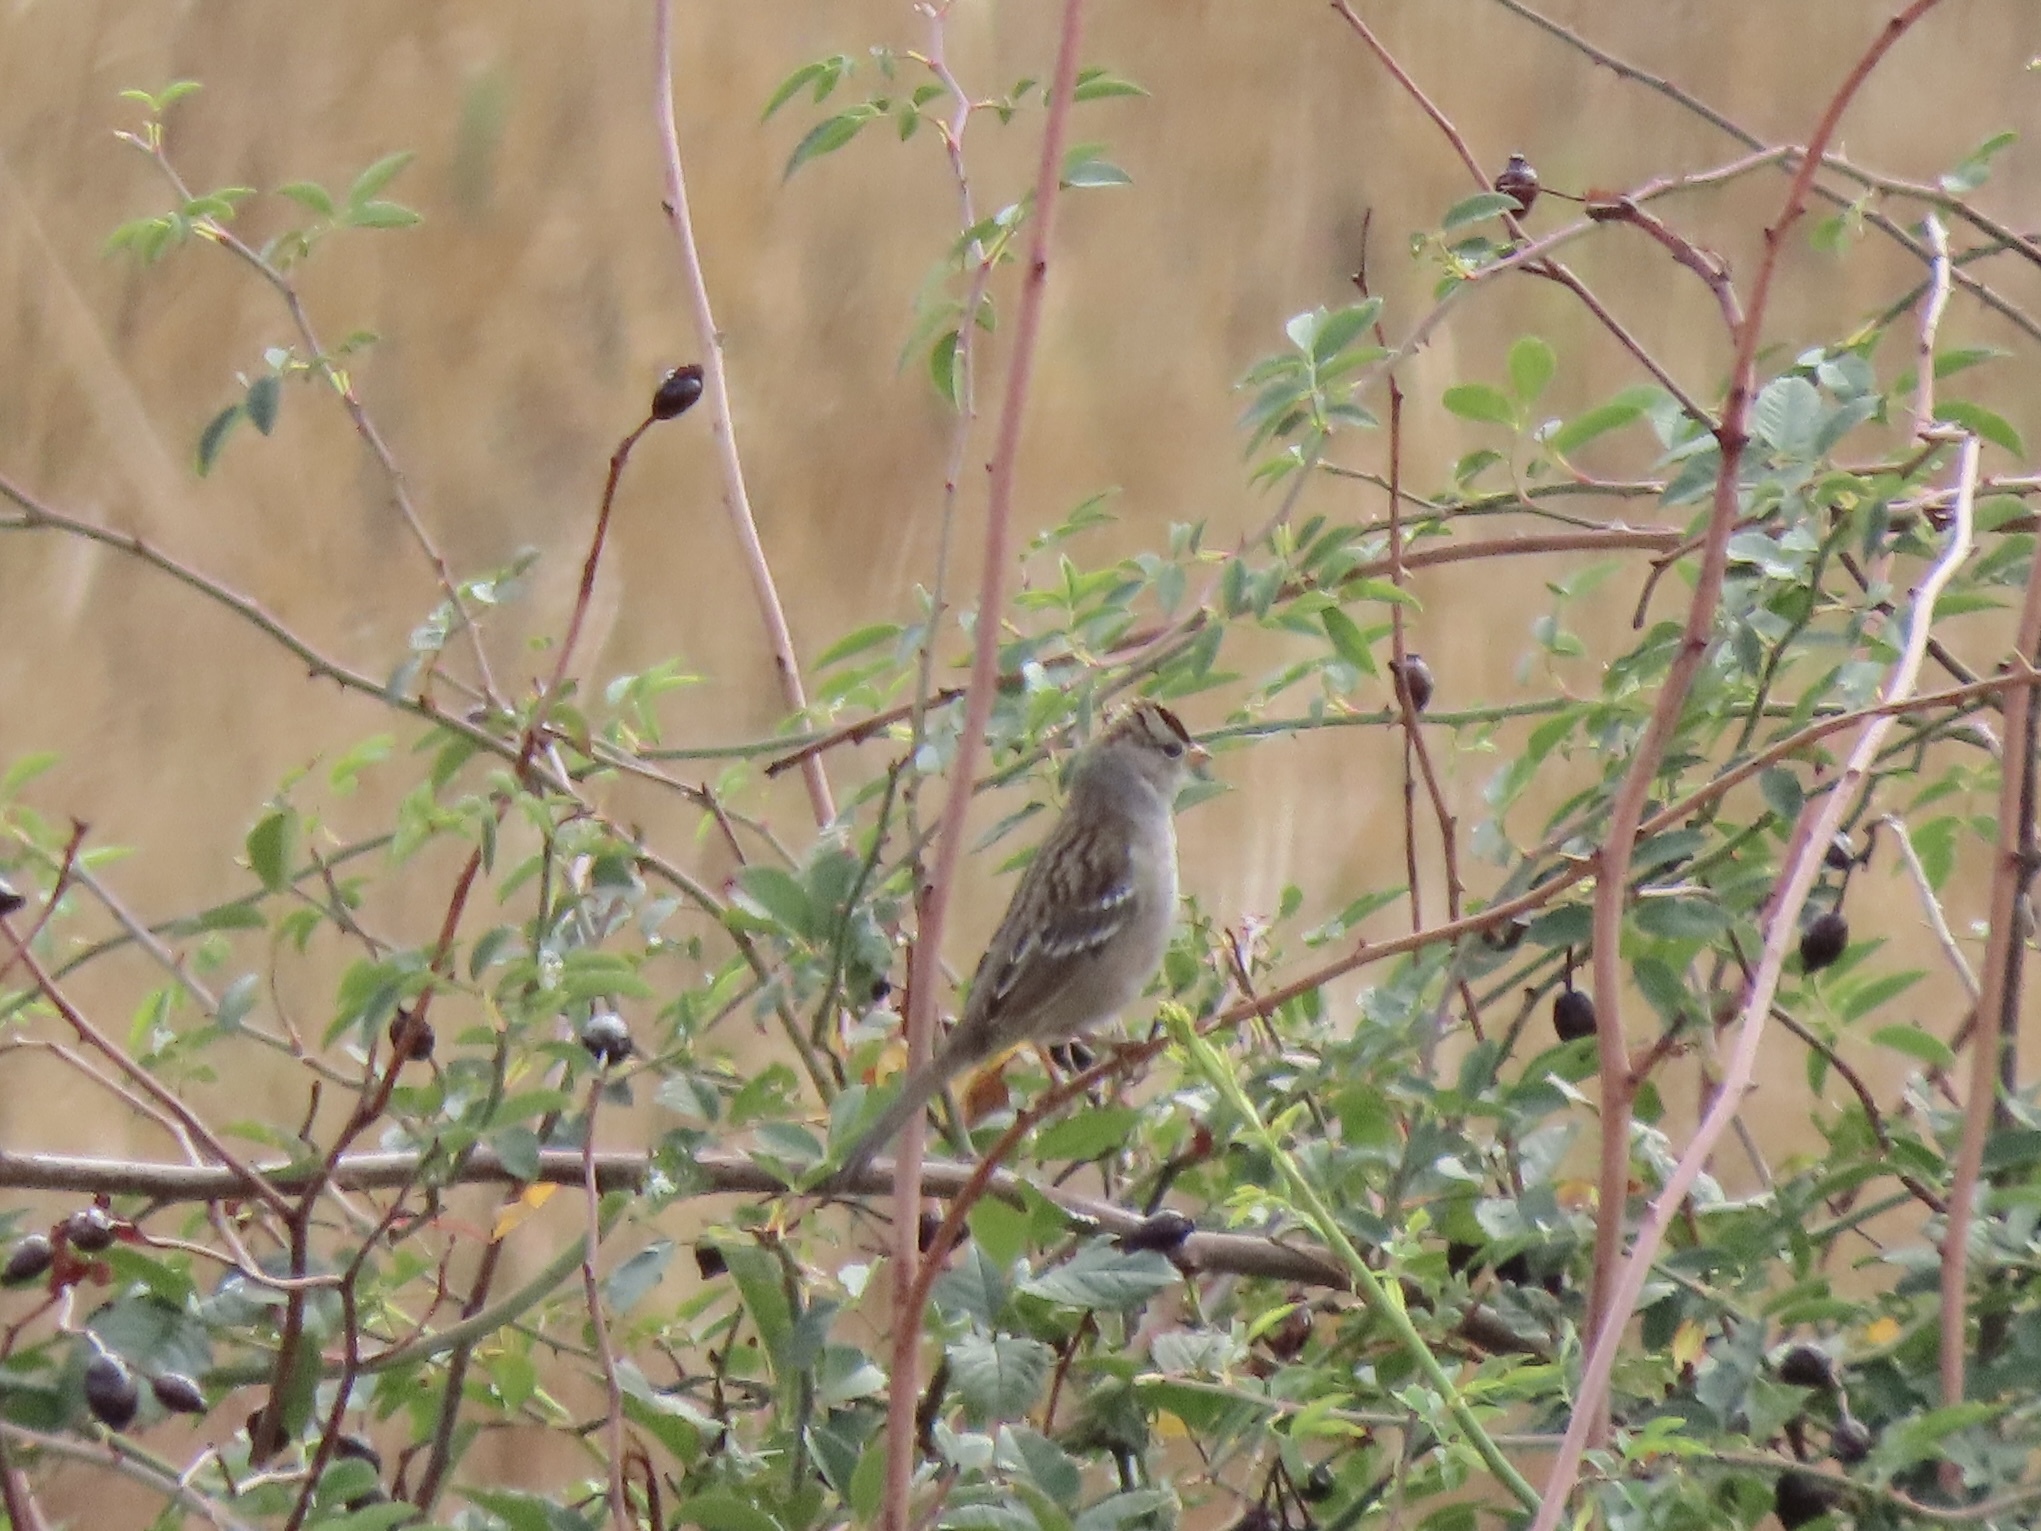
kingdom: Animalia
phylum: Chordata
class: Aves
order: Passeriformes
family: Passerellidae
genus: Zonotrichia
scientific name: Zonotrichia leucophrys
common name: White-crowned sparrow
